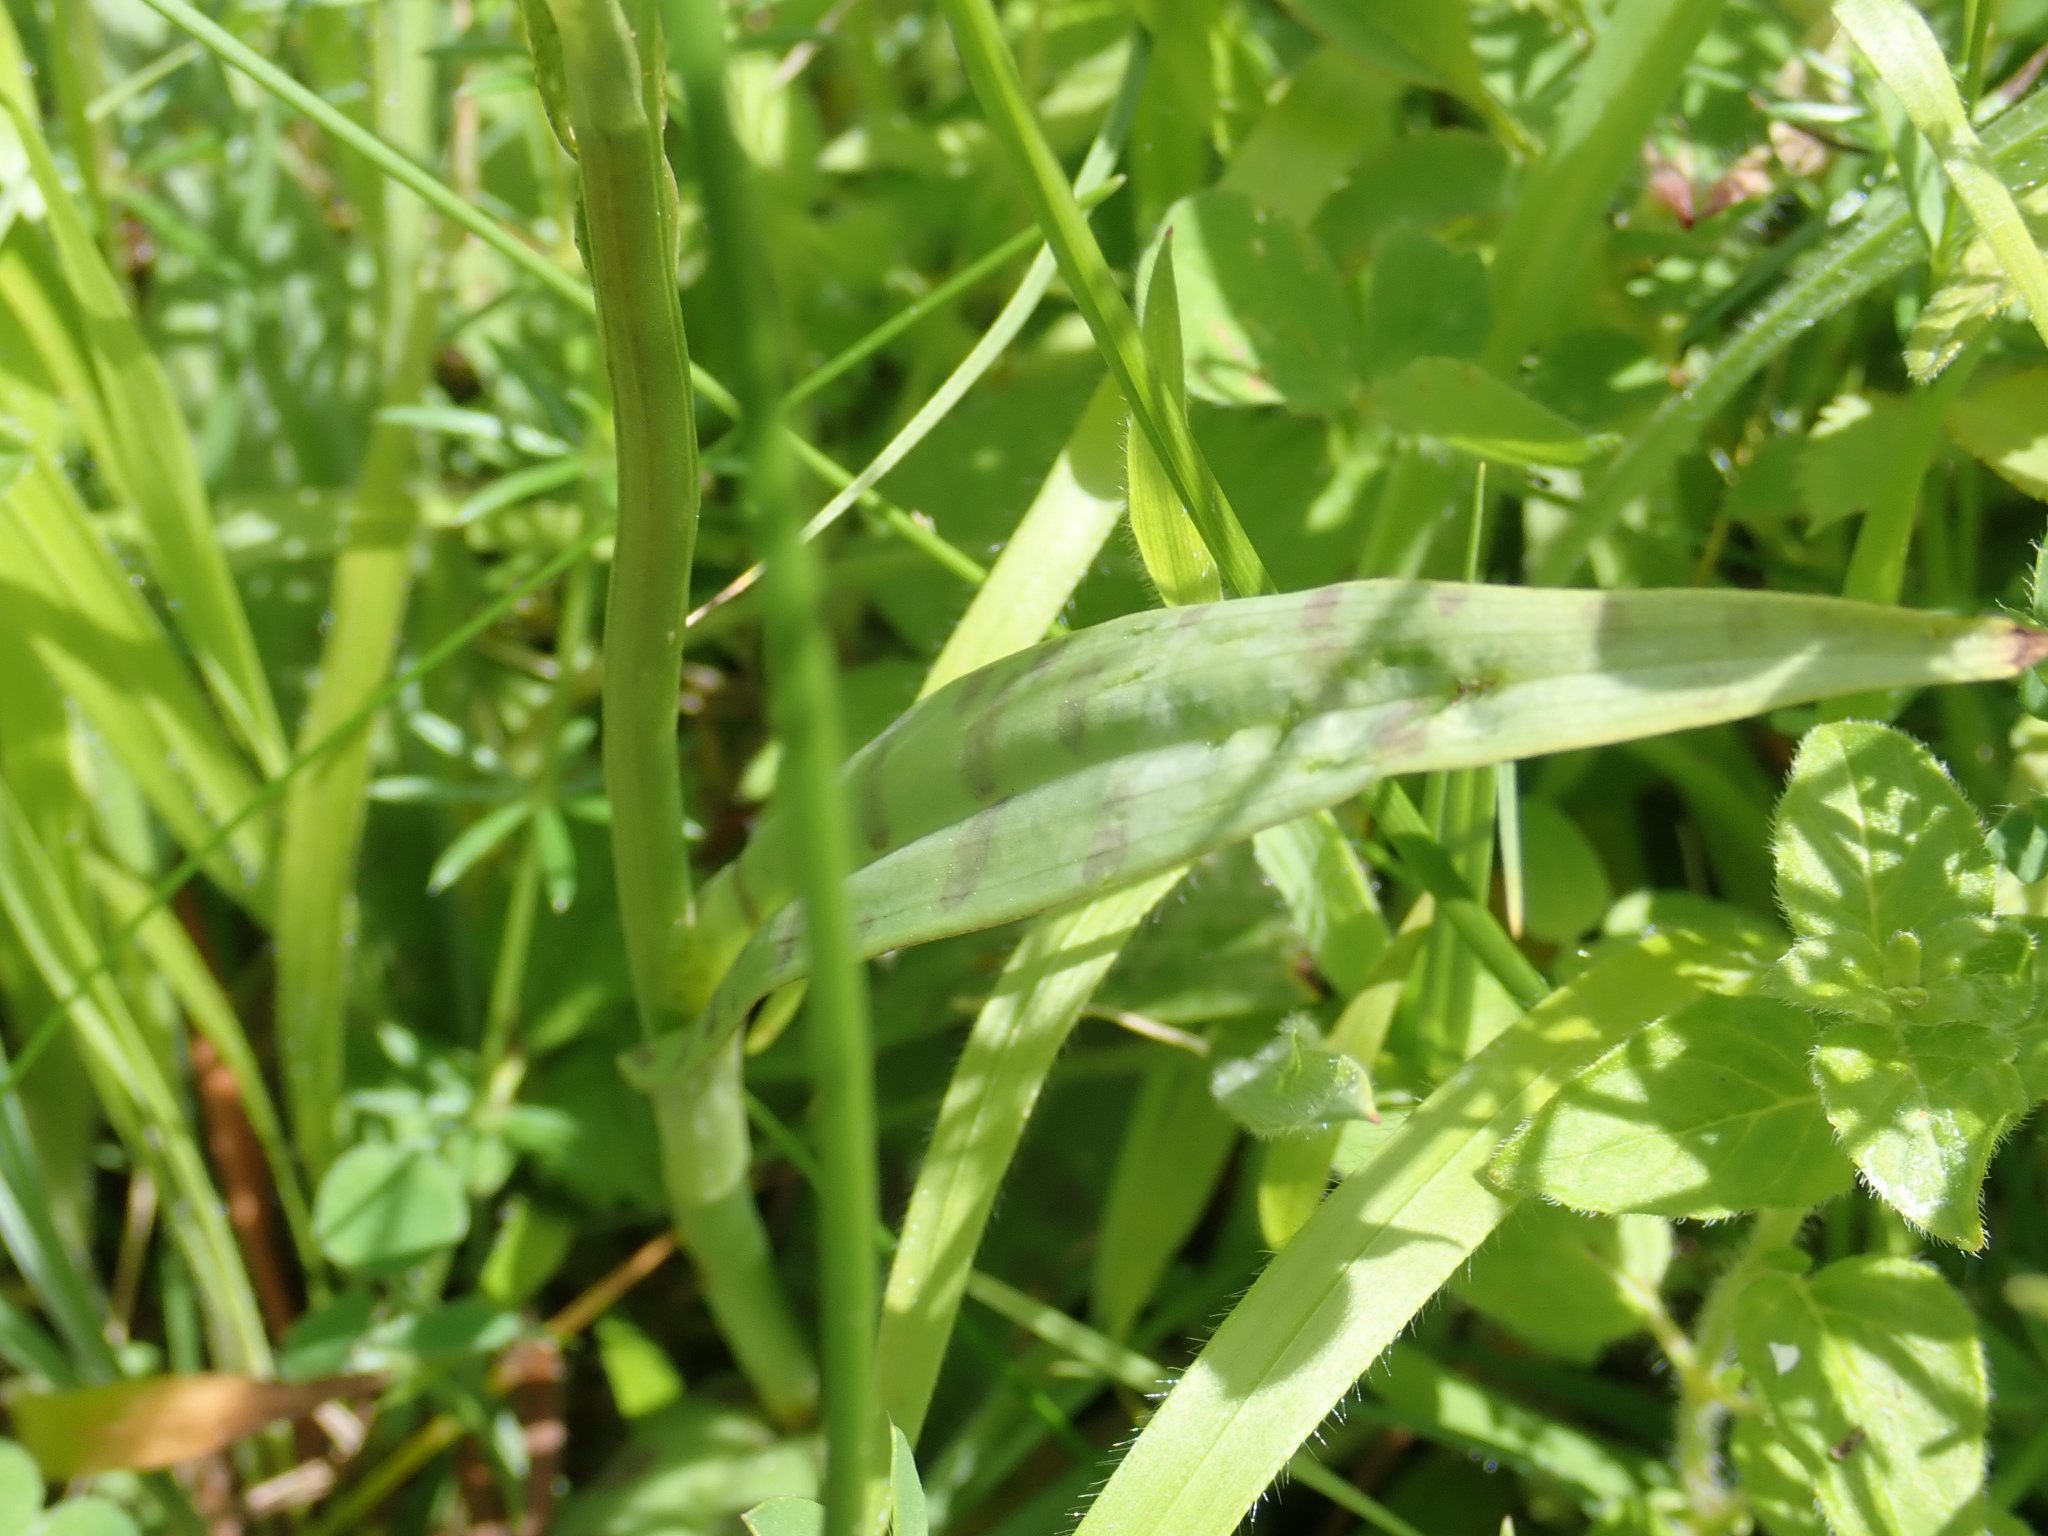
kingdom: Plantae
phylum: Tracheophyta
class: Liliopsida
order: Asparagales
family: Orchidaceae
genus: Dactylorhiza
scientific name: Dactylorhiza maculata
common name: Heath spotted-orchid
